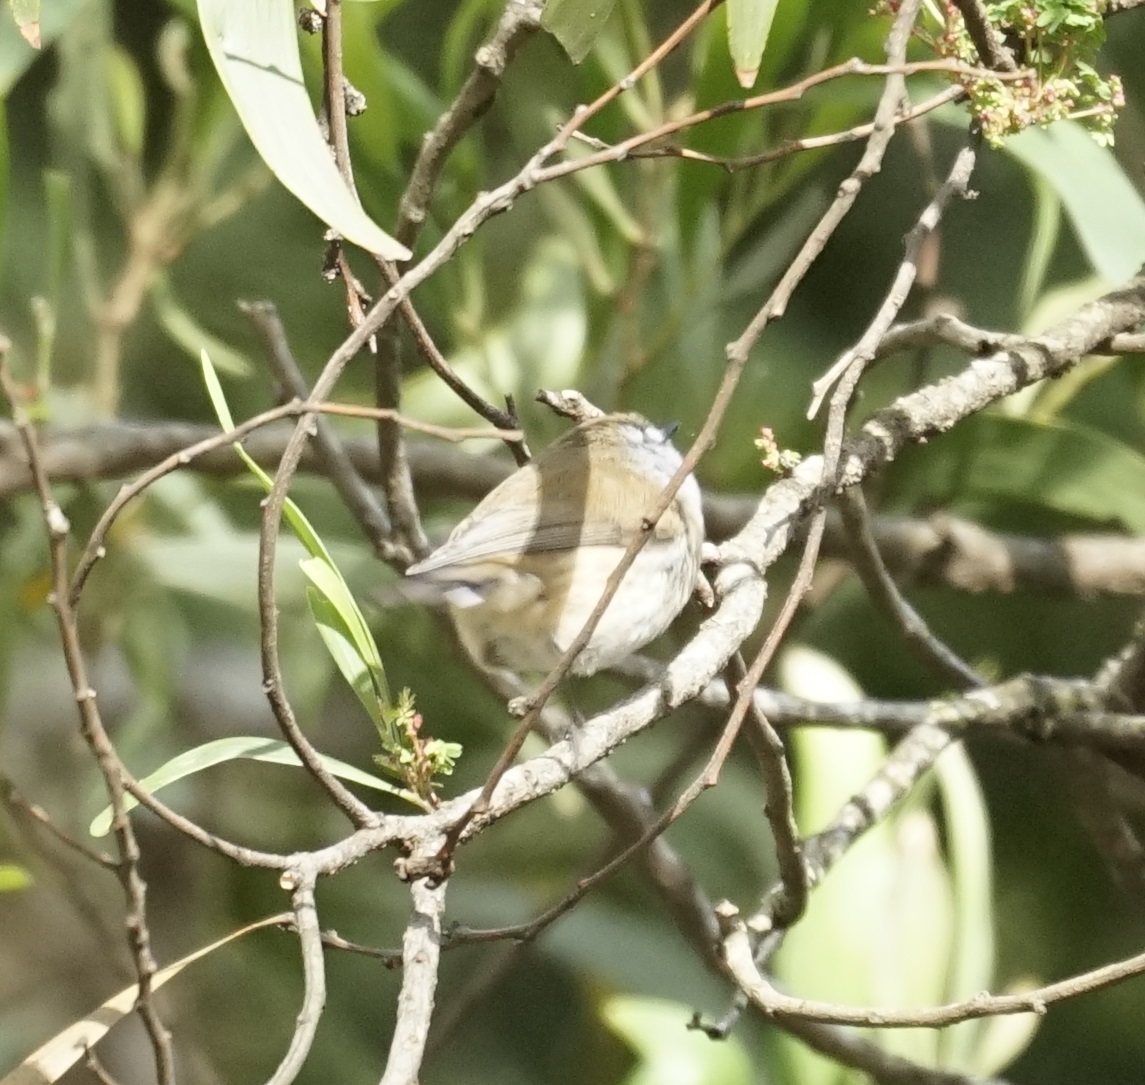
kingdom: Animalia
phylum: Chordata
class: Aves
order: Passeriformes
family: Acanthizidae
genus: Gerygone
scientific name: Gerygone mouki
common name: Brown gerygone
